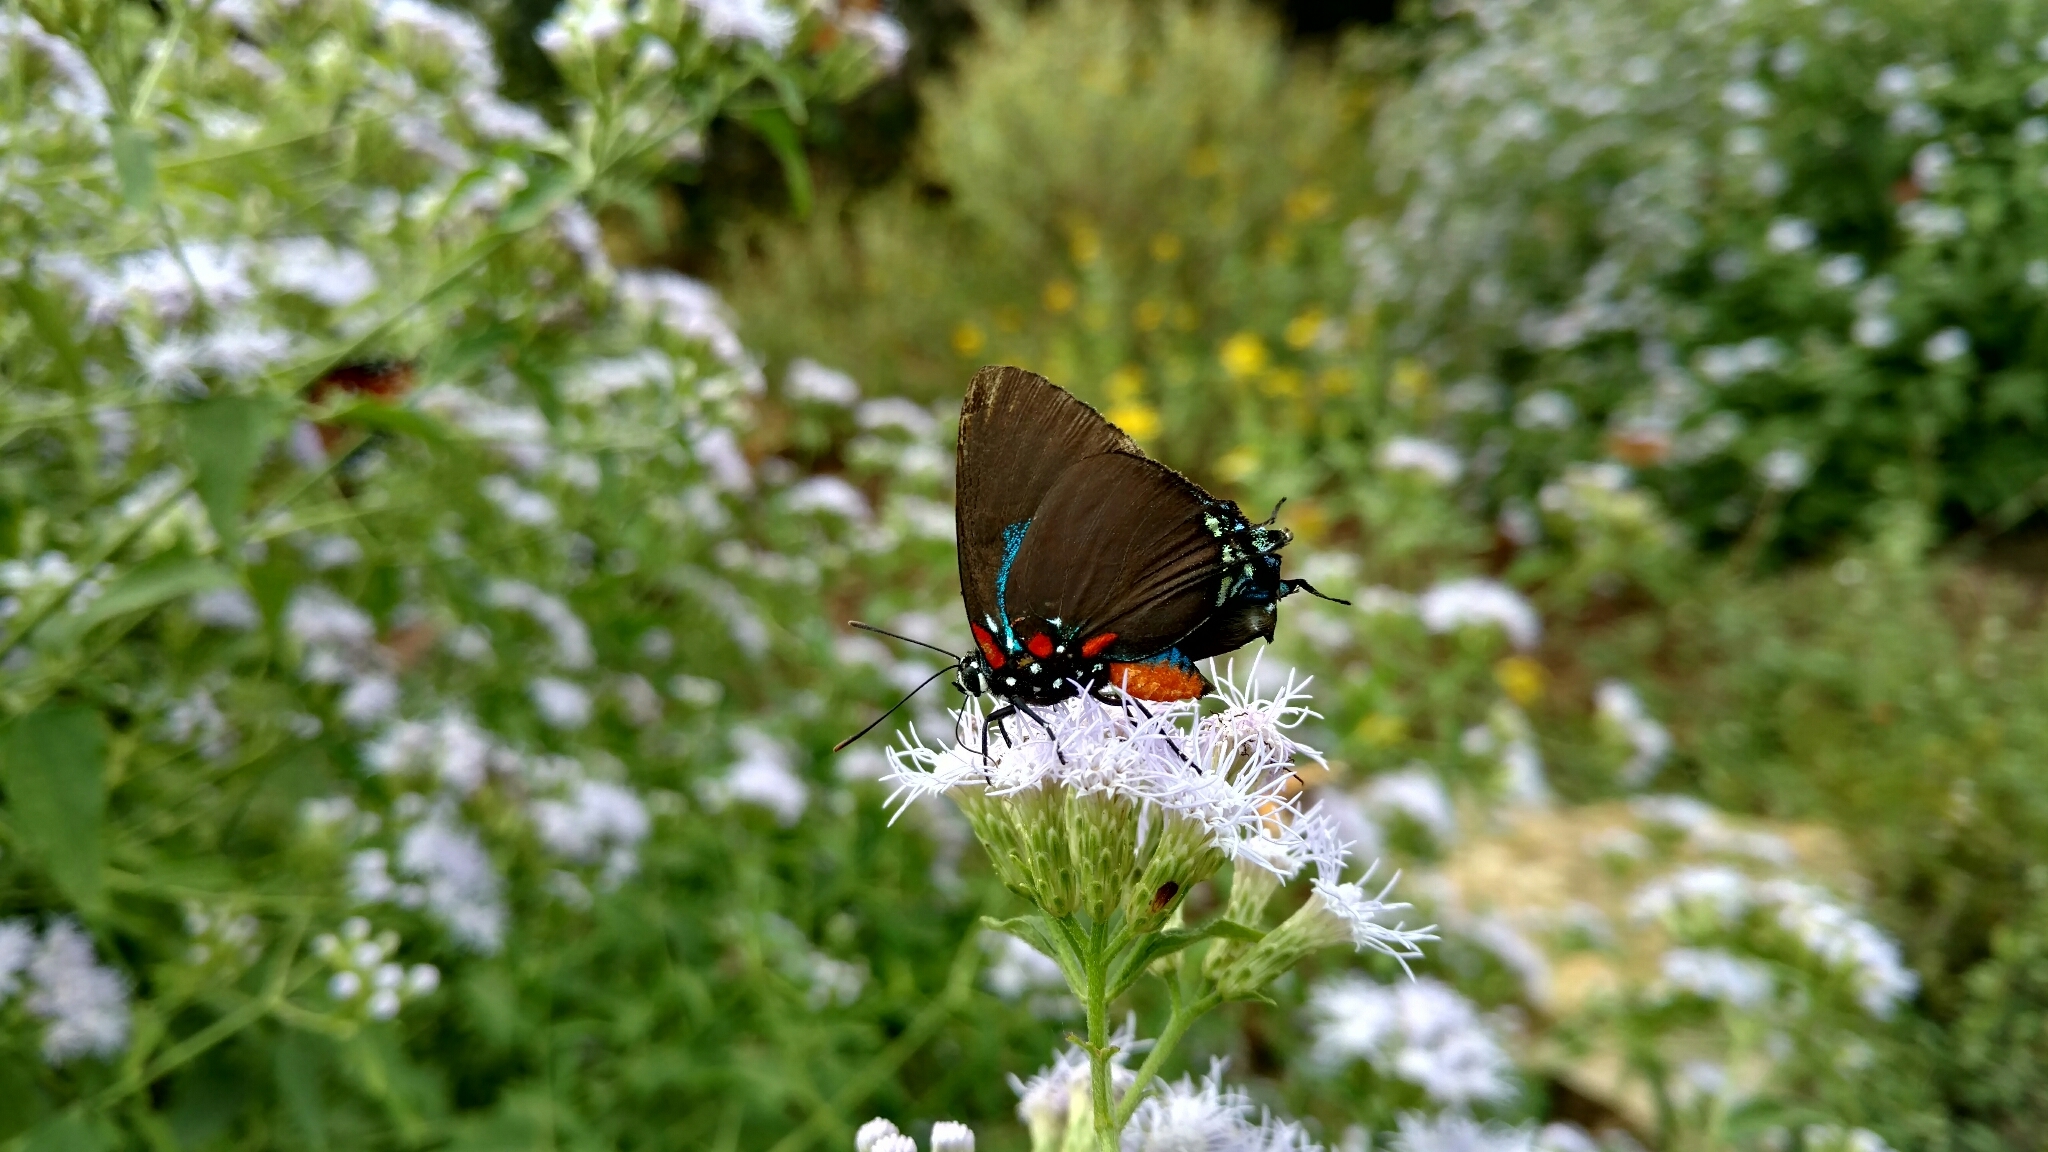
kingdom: Animalia
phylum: Arthropoda
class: Insecta
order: Lepidoptera
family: Lycaenidae
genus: Atlides
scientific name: Atlides halesus
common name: Great purple hairstreak
